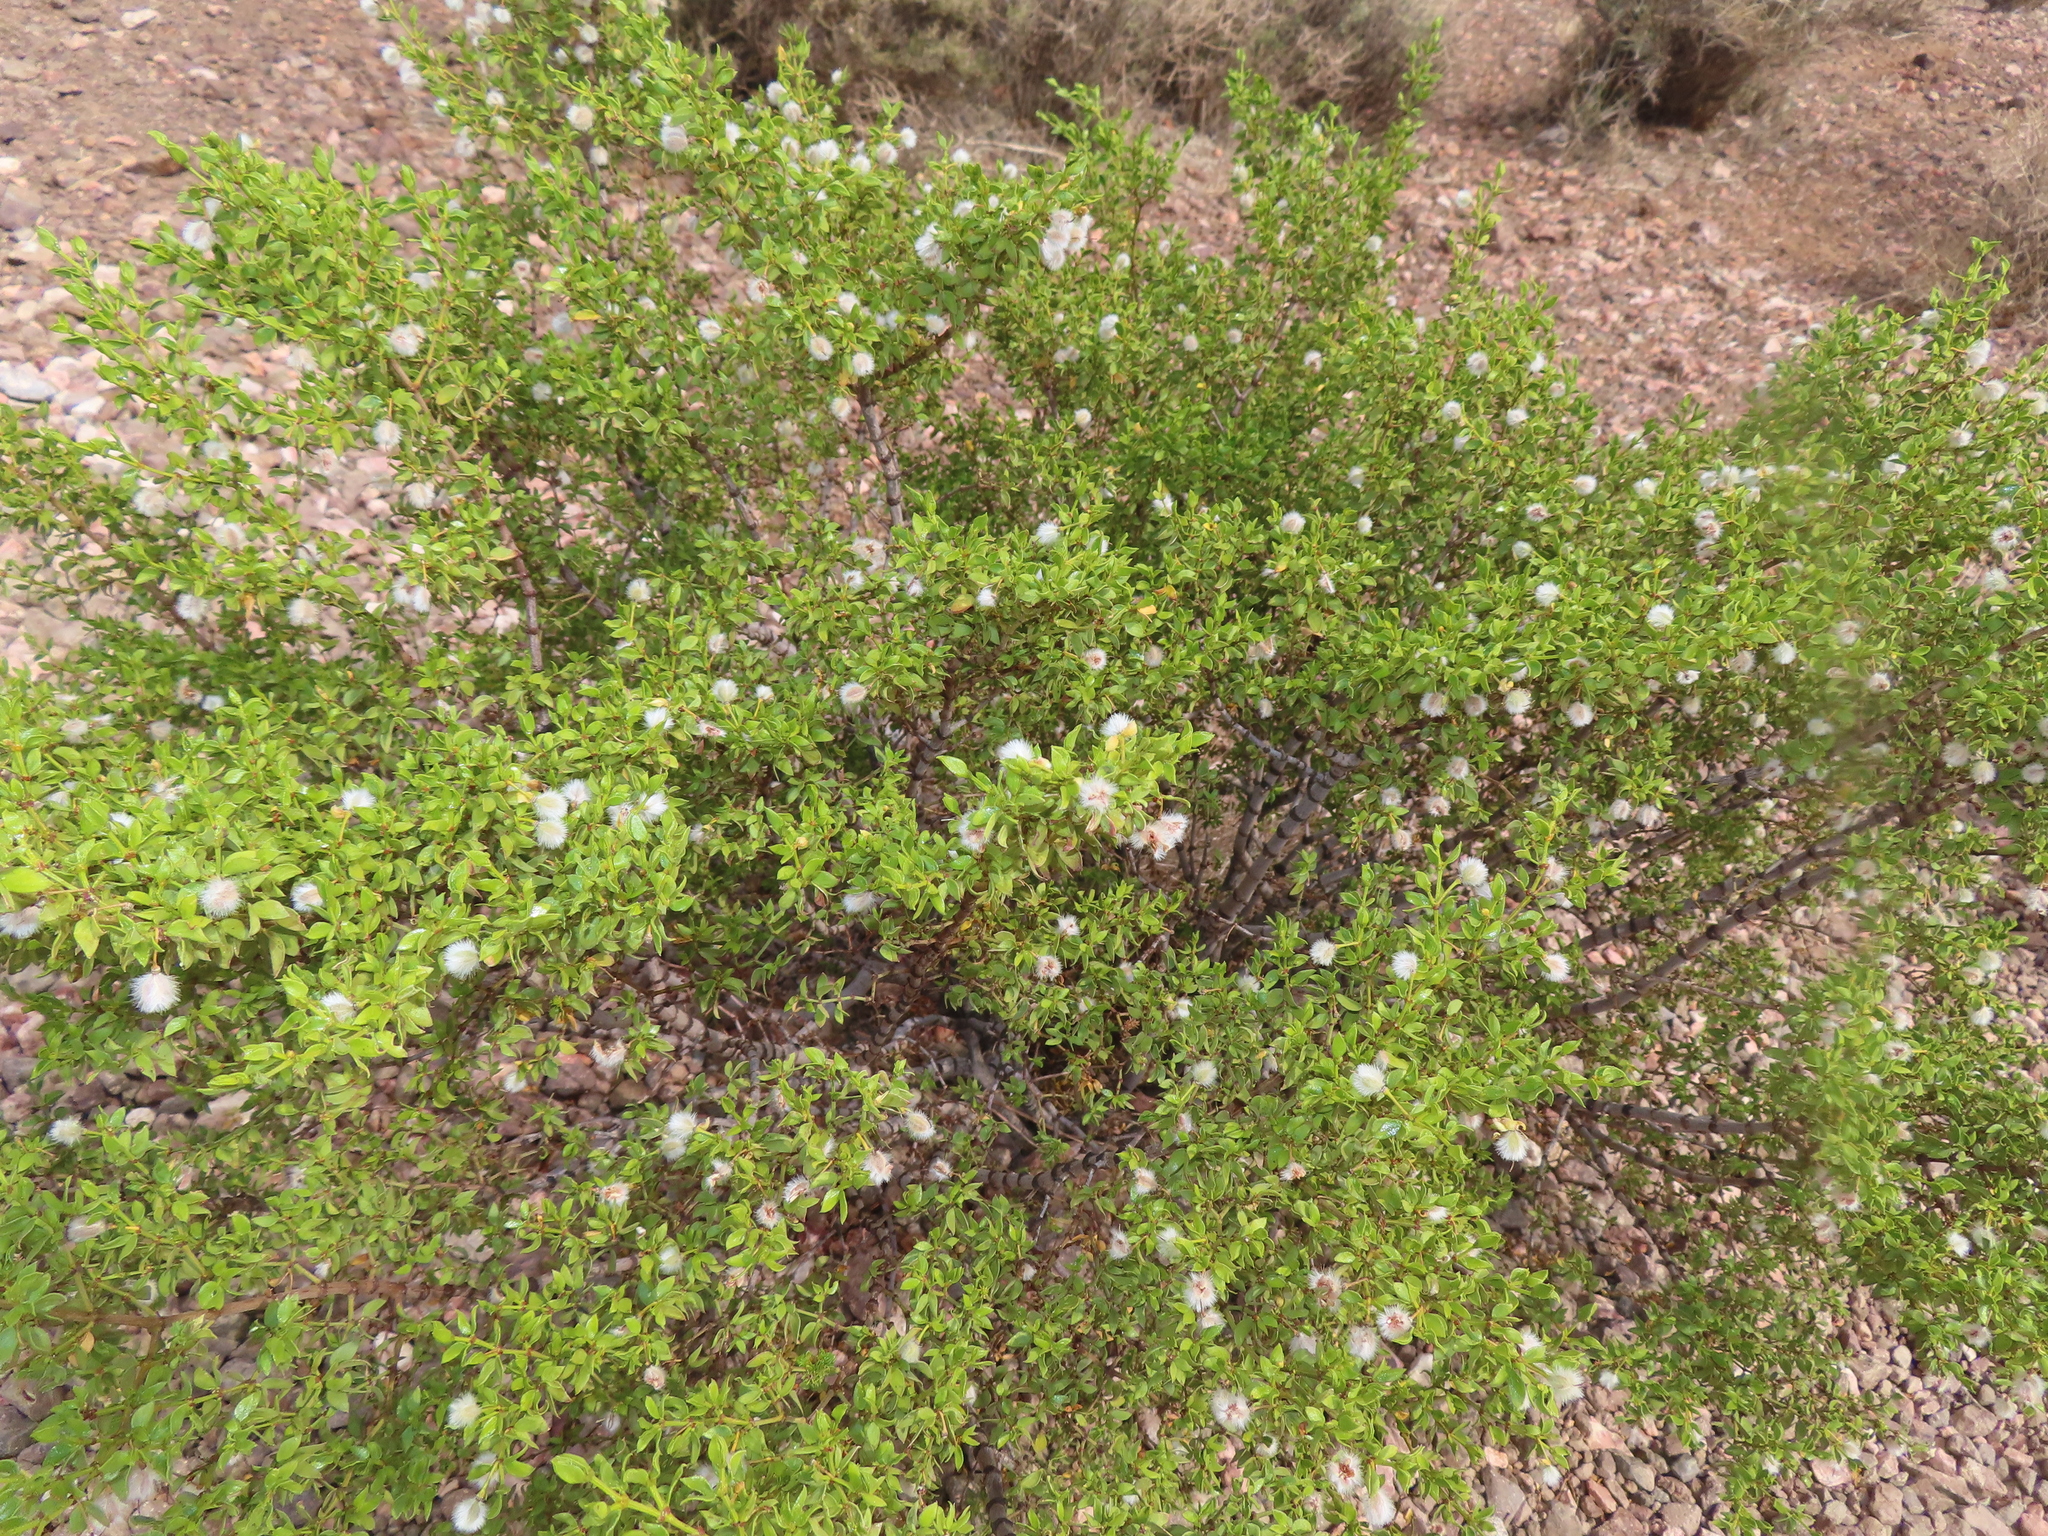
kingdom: Plantae
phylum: Tracheophyta
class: Magnoliopsida
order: Zygophyllales
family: Zygophyllaceae
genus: Larrea
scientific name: Larrea tridentata
